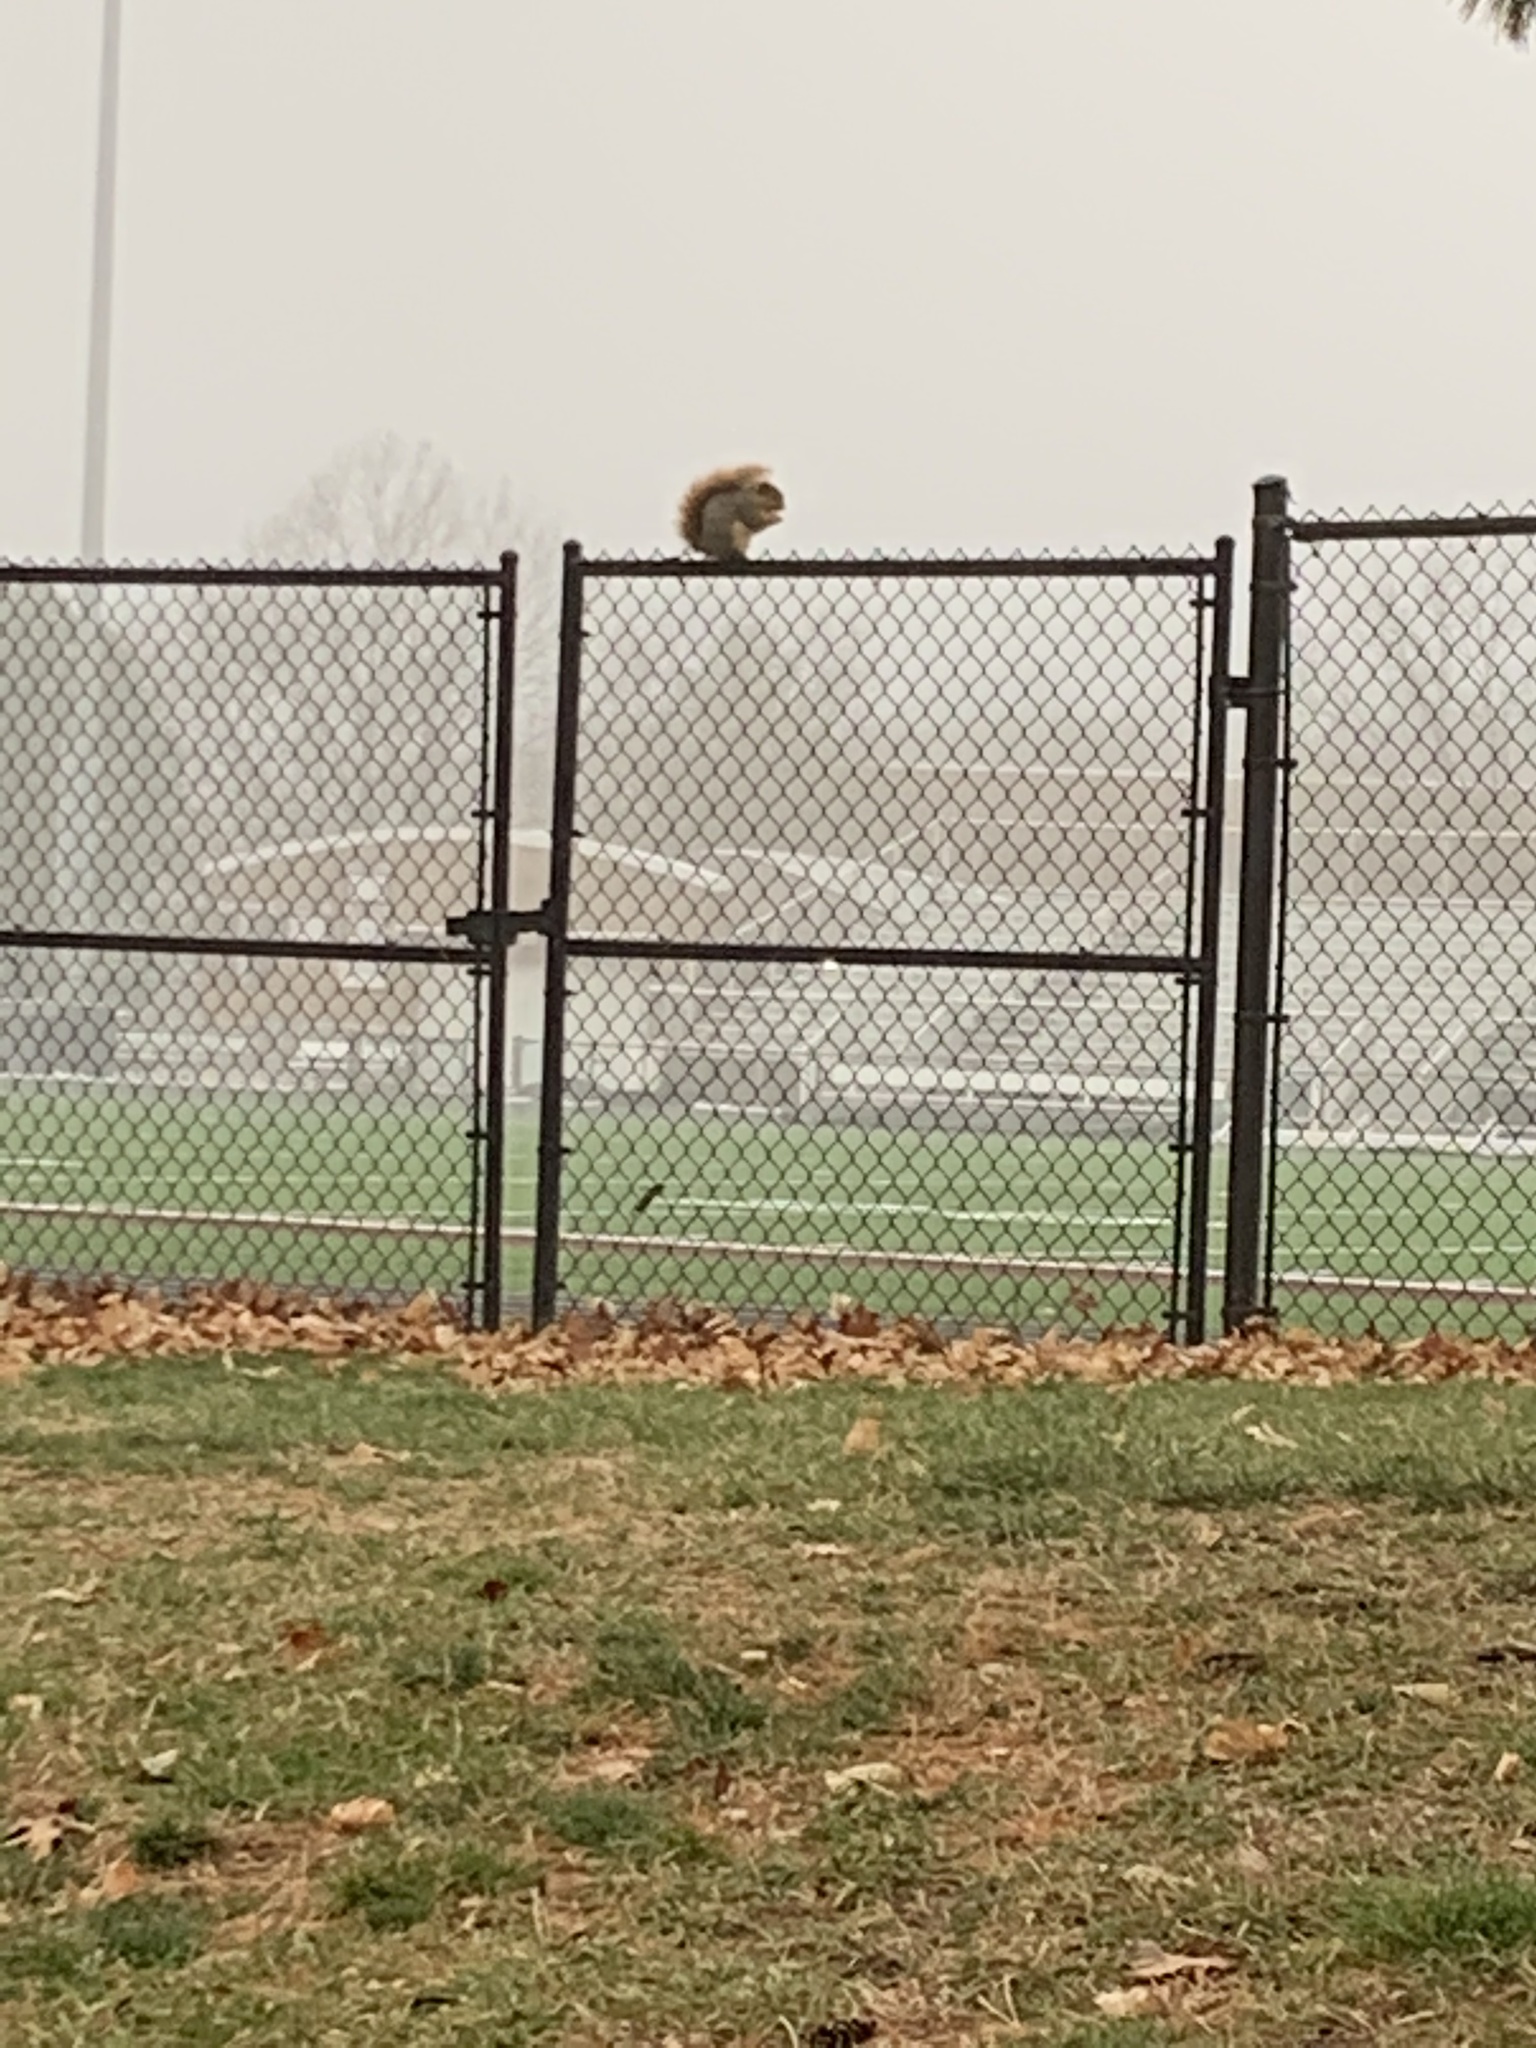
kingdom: Animalia
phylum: Chordata
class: Mammalia
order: Rodentia
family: Sciuridae
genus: Sciurus
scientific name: Sciurus niger
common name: Fox squirrel
